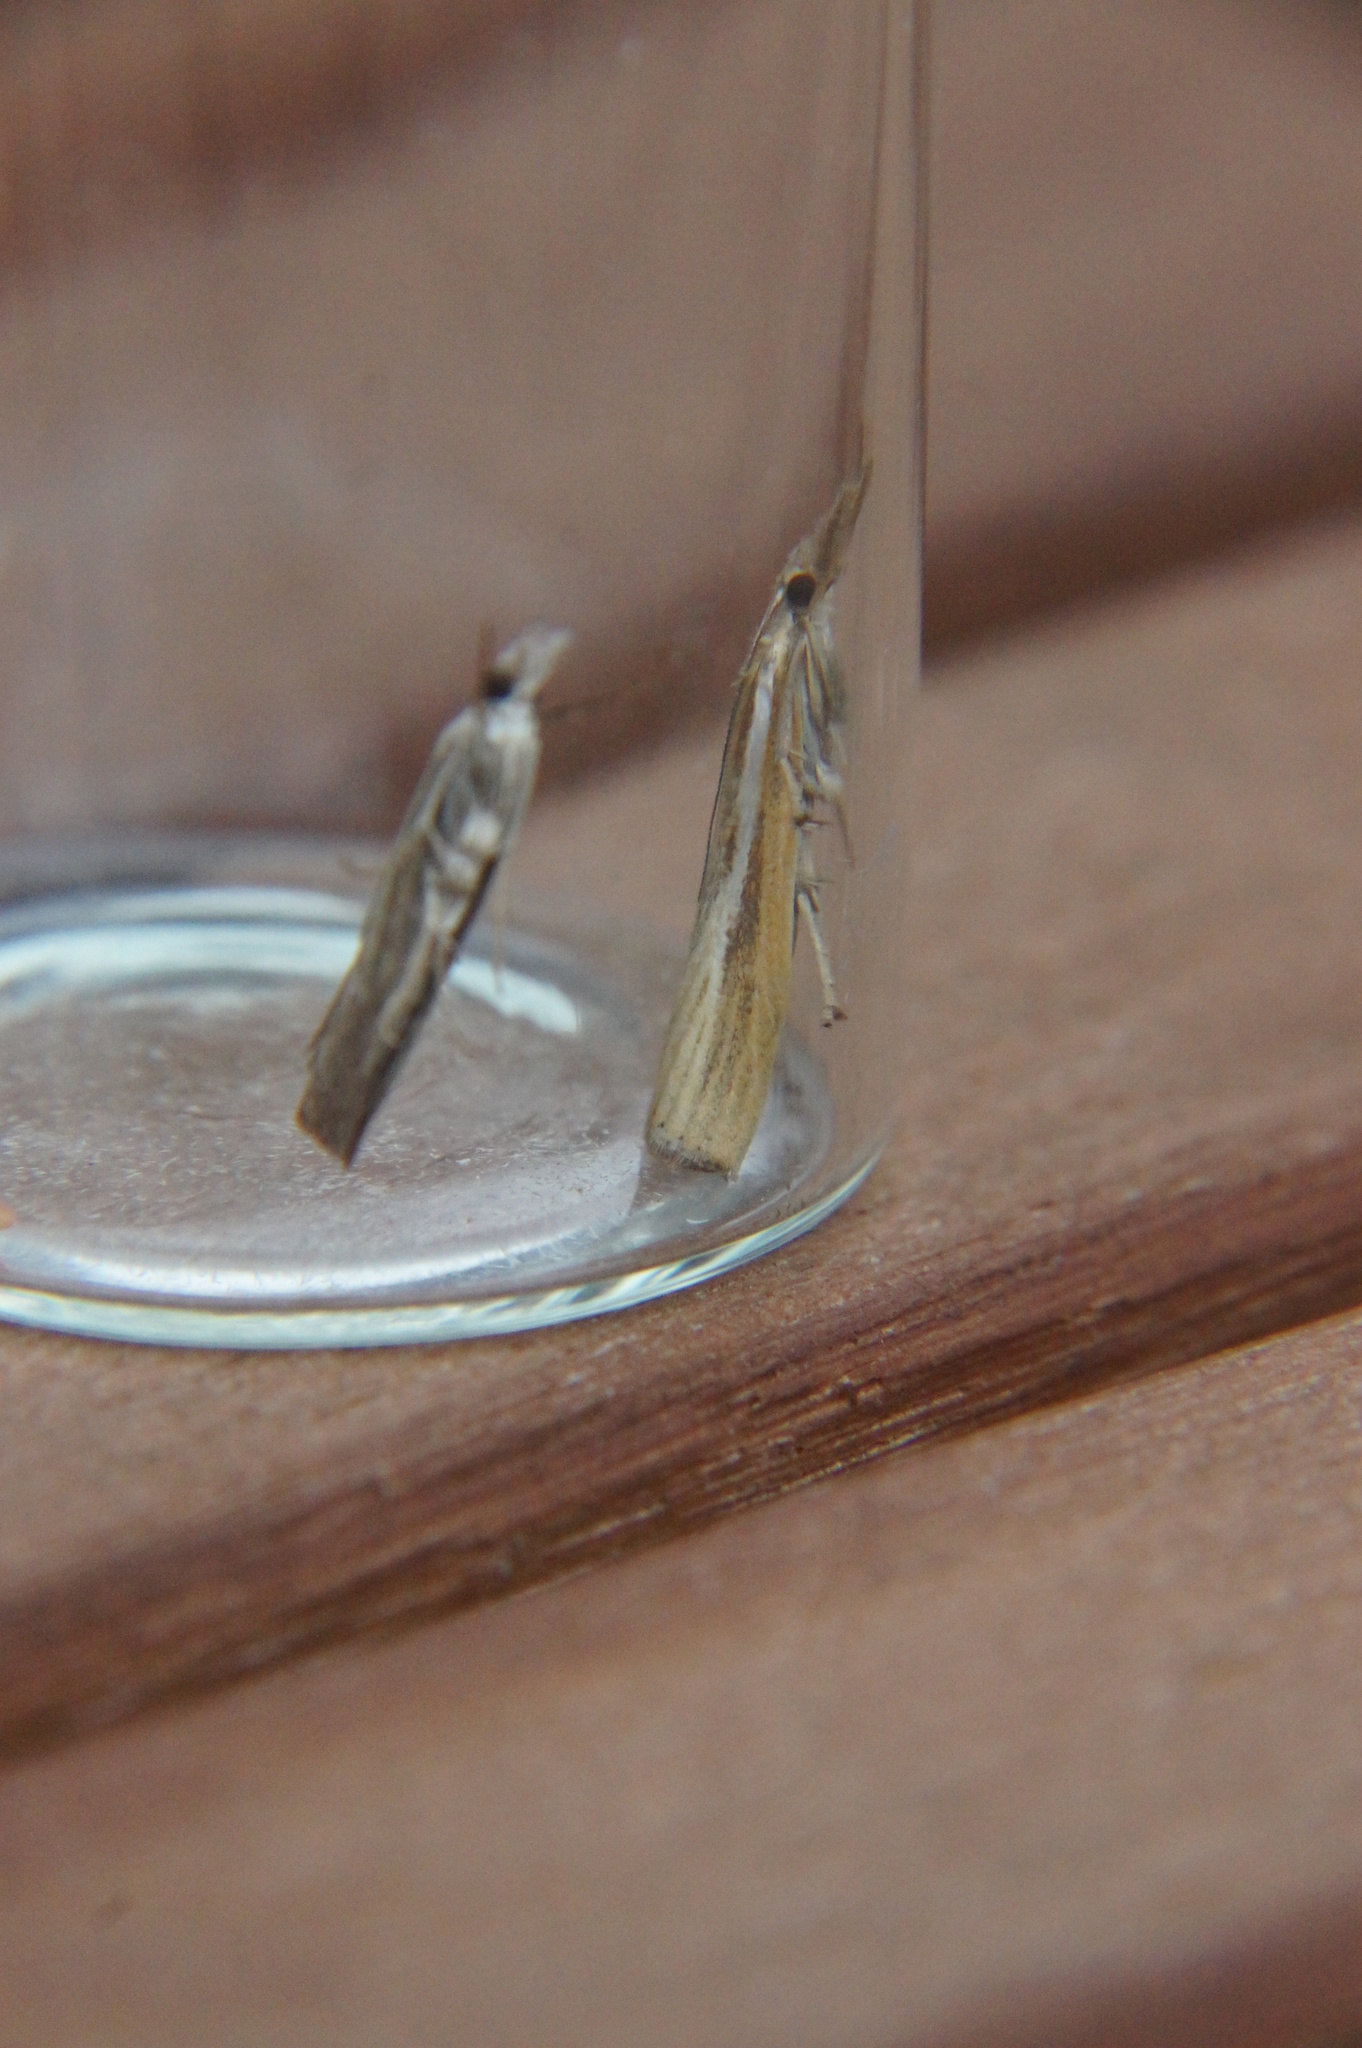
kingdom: Animalia
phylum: Arthropoda
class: Insecta
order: Lepidoptera
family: Crambidae
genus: Agriphila
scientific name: Agriphila tristellus
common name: Common grass-veneer
